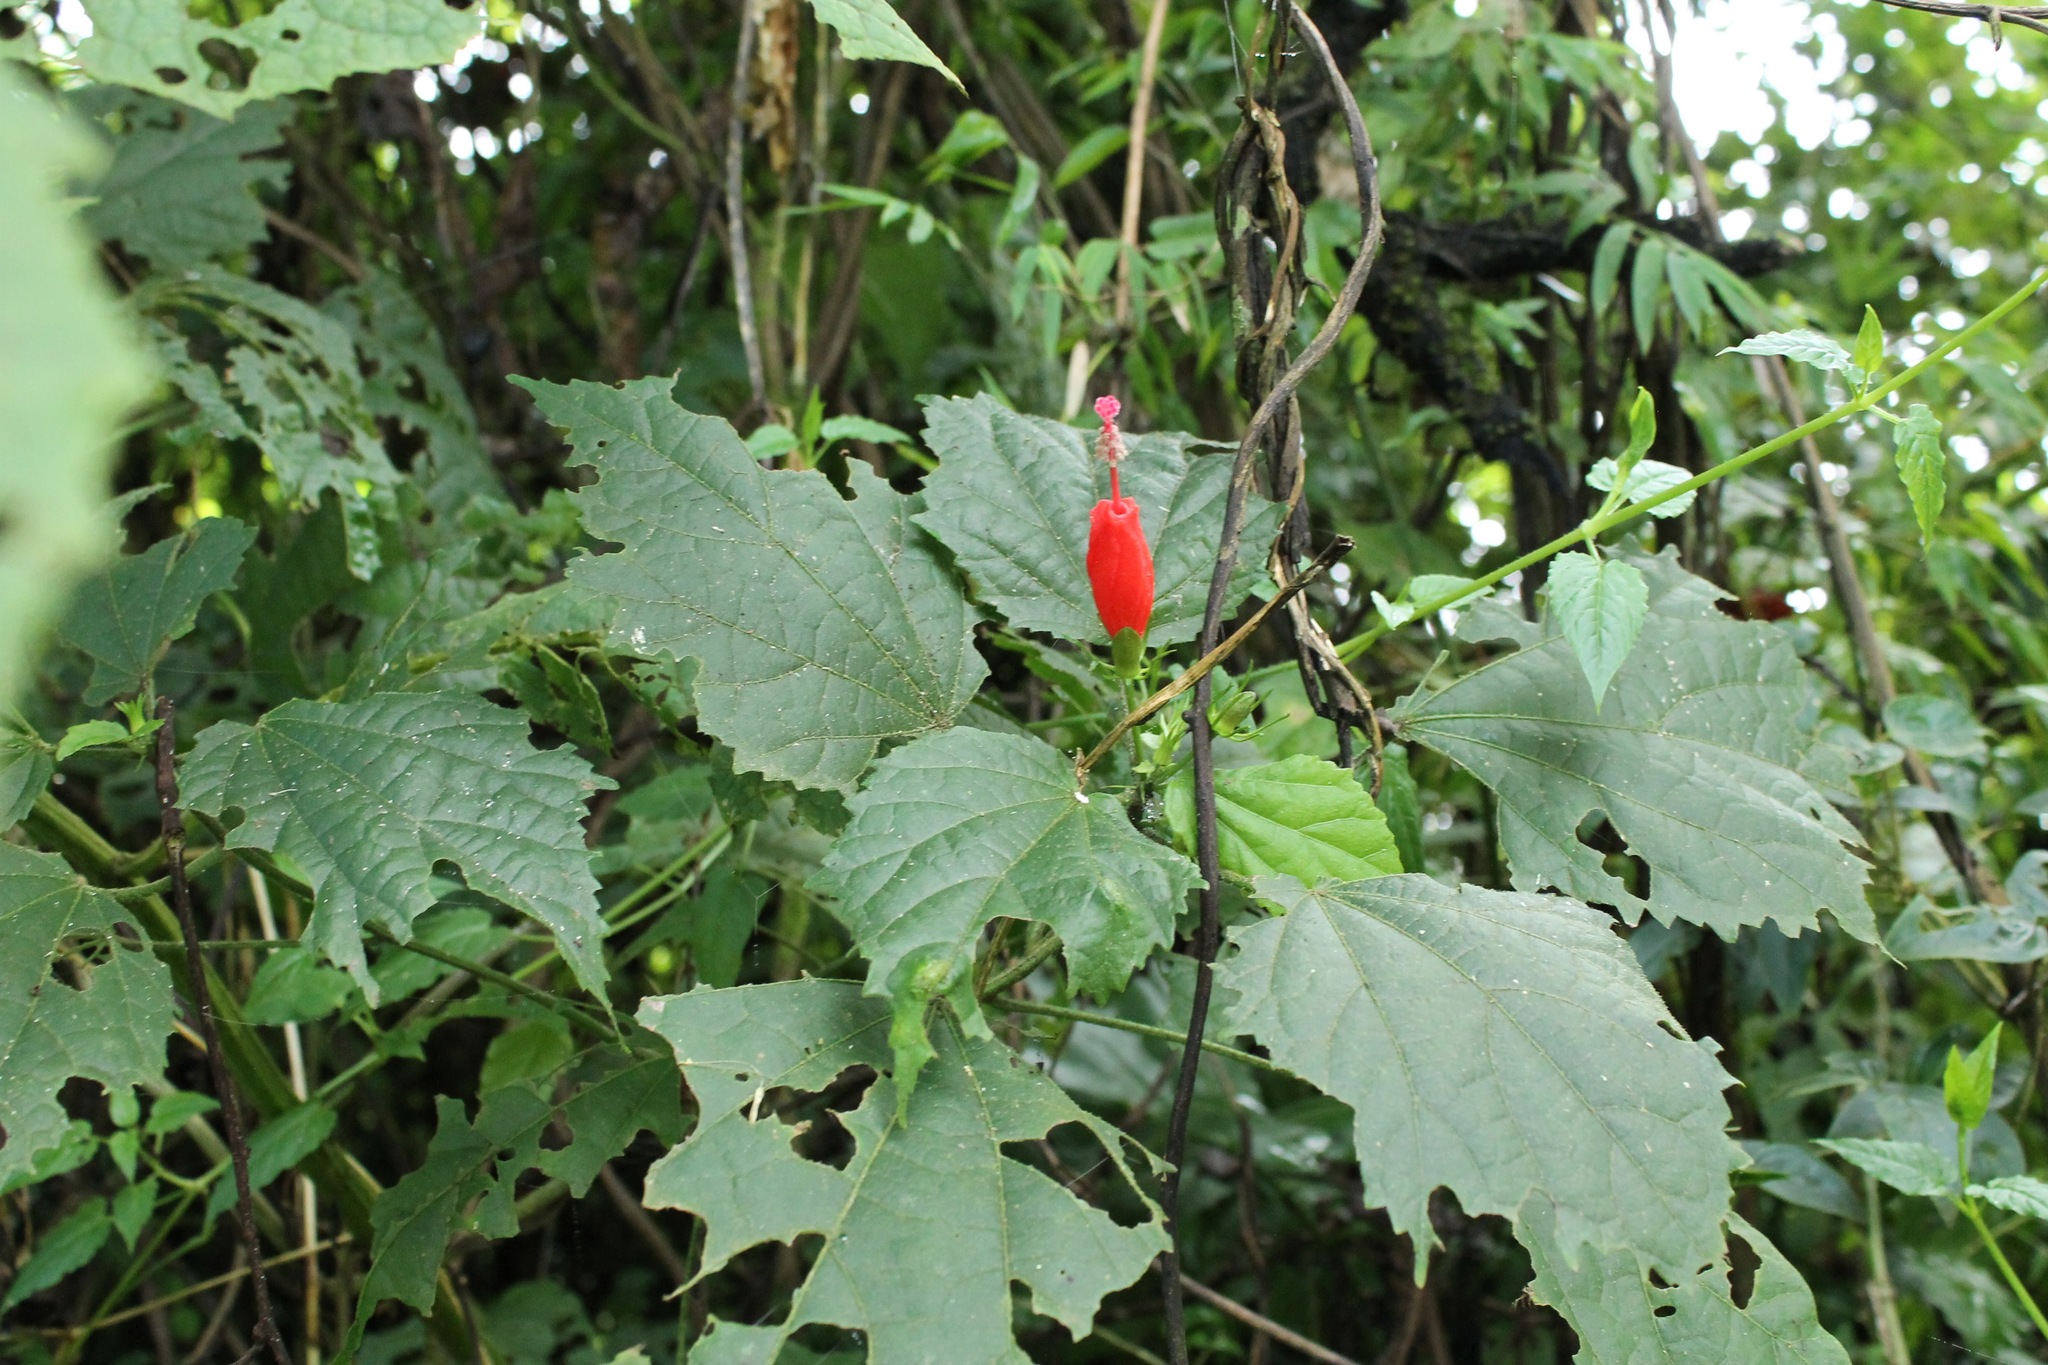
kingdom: Plantae
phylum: Tracheophyta
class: Magnoliopsida
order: Malvales
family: Malvaceae
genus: Malvaviscus
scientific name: Malvaviscus arboreus
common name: Wax mallow
